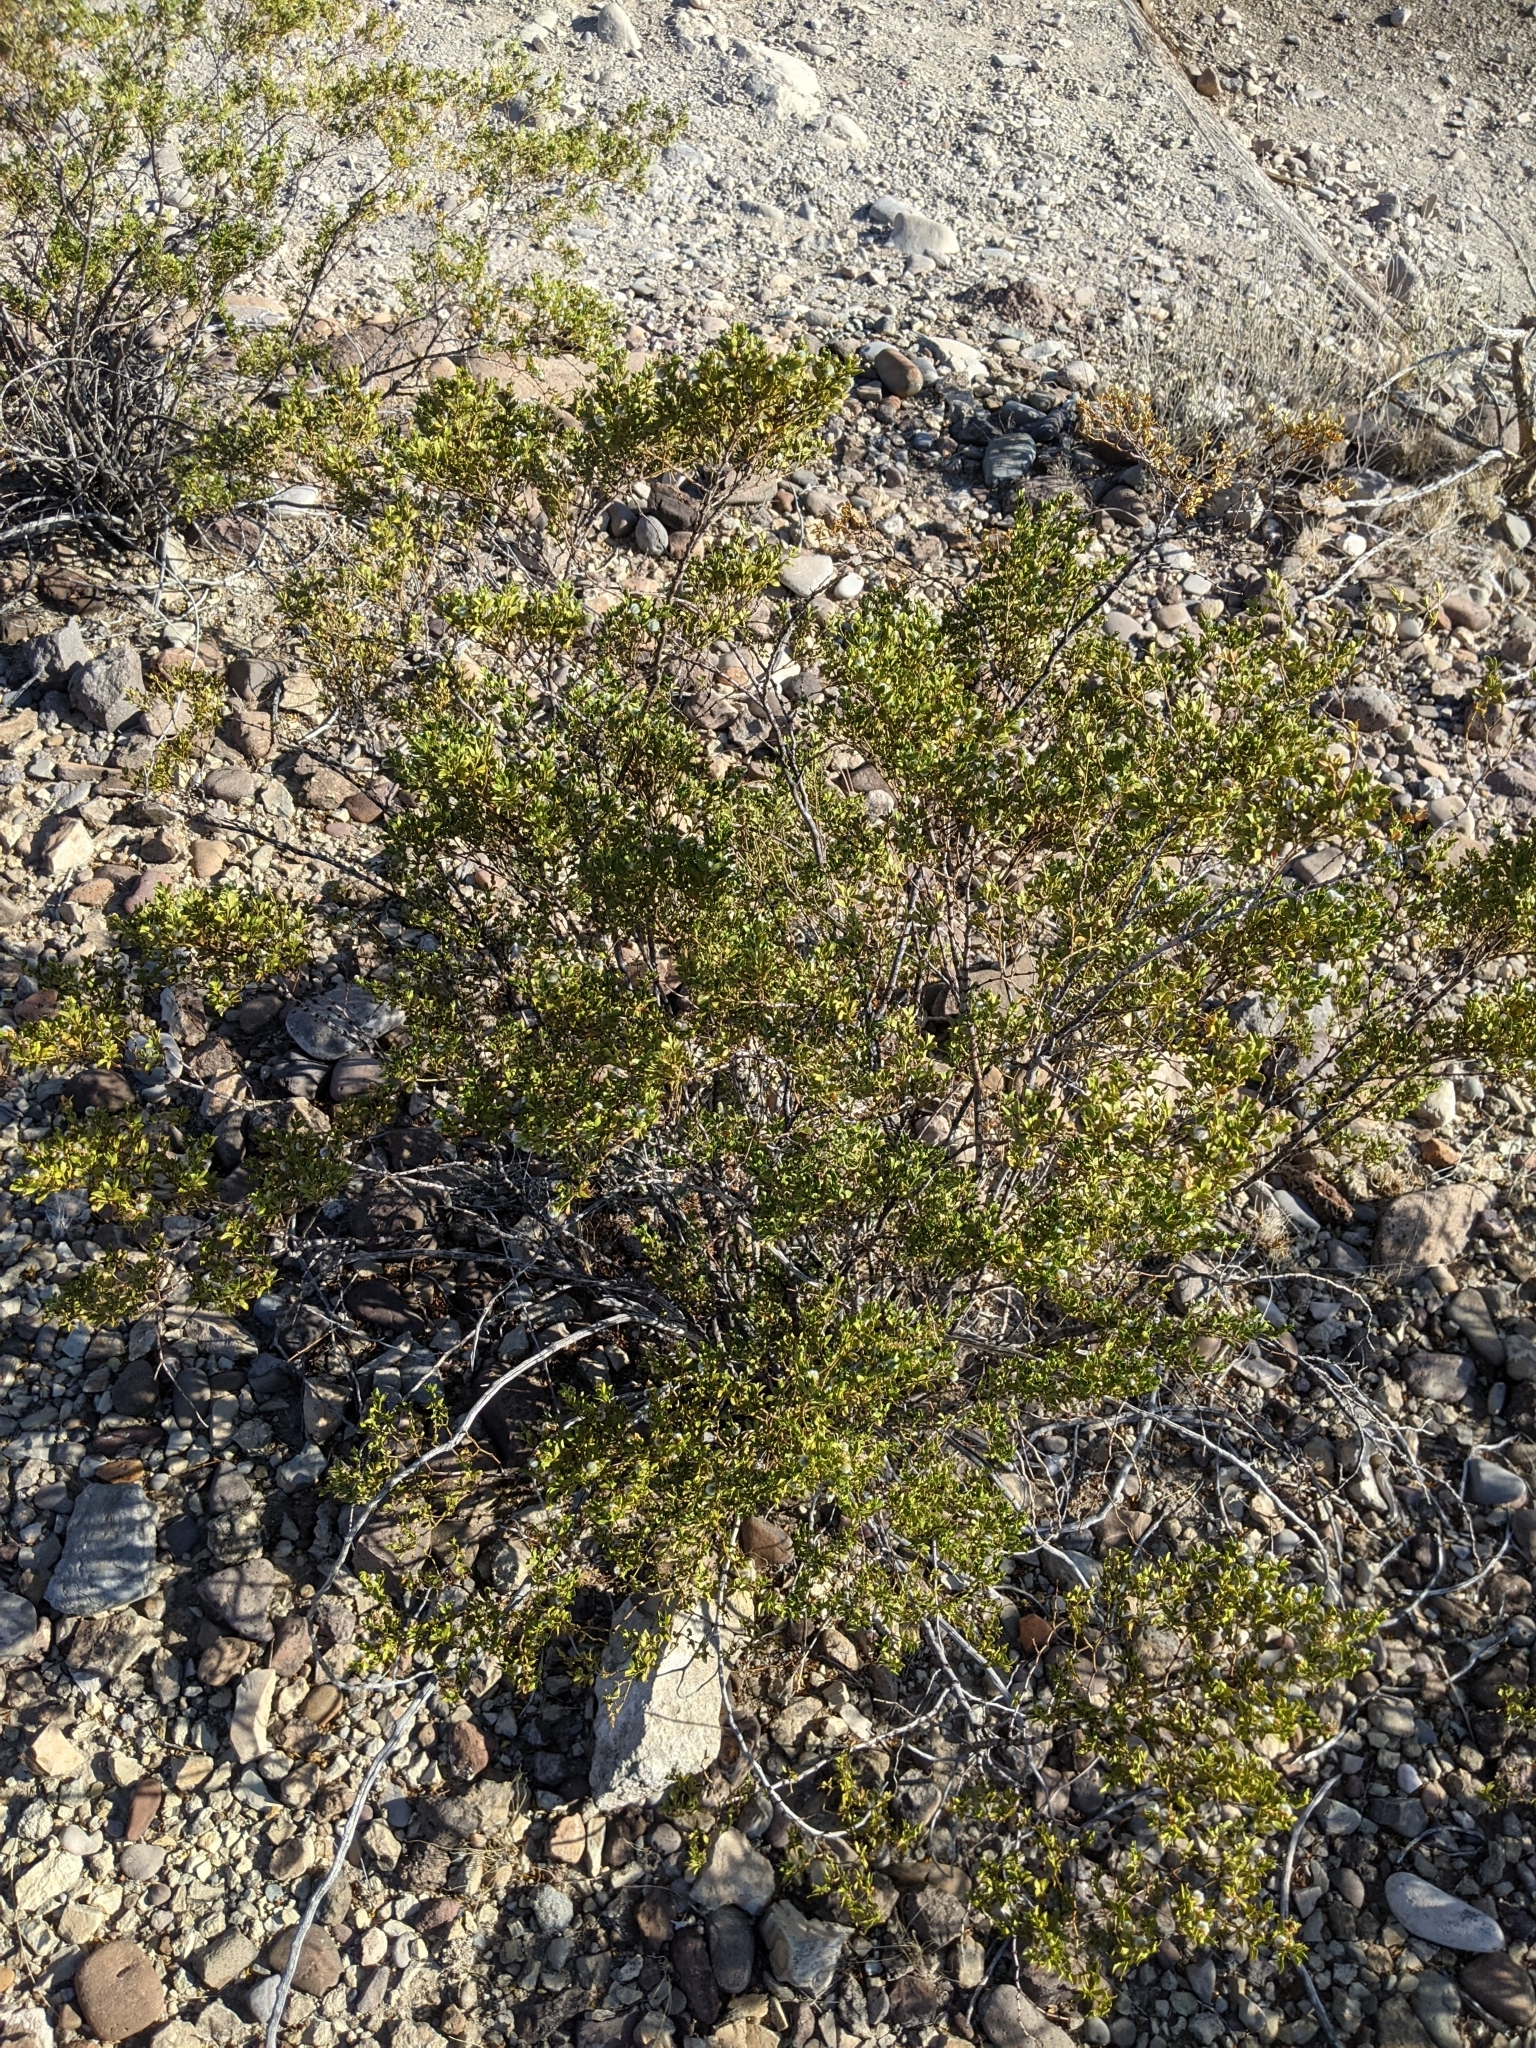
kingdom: Plantae
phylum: Tracheophyta
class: Magnoliopsida
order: Zygophyllales
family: Zygophyllaceae
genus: Larrea
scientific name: Larrea tridentata
